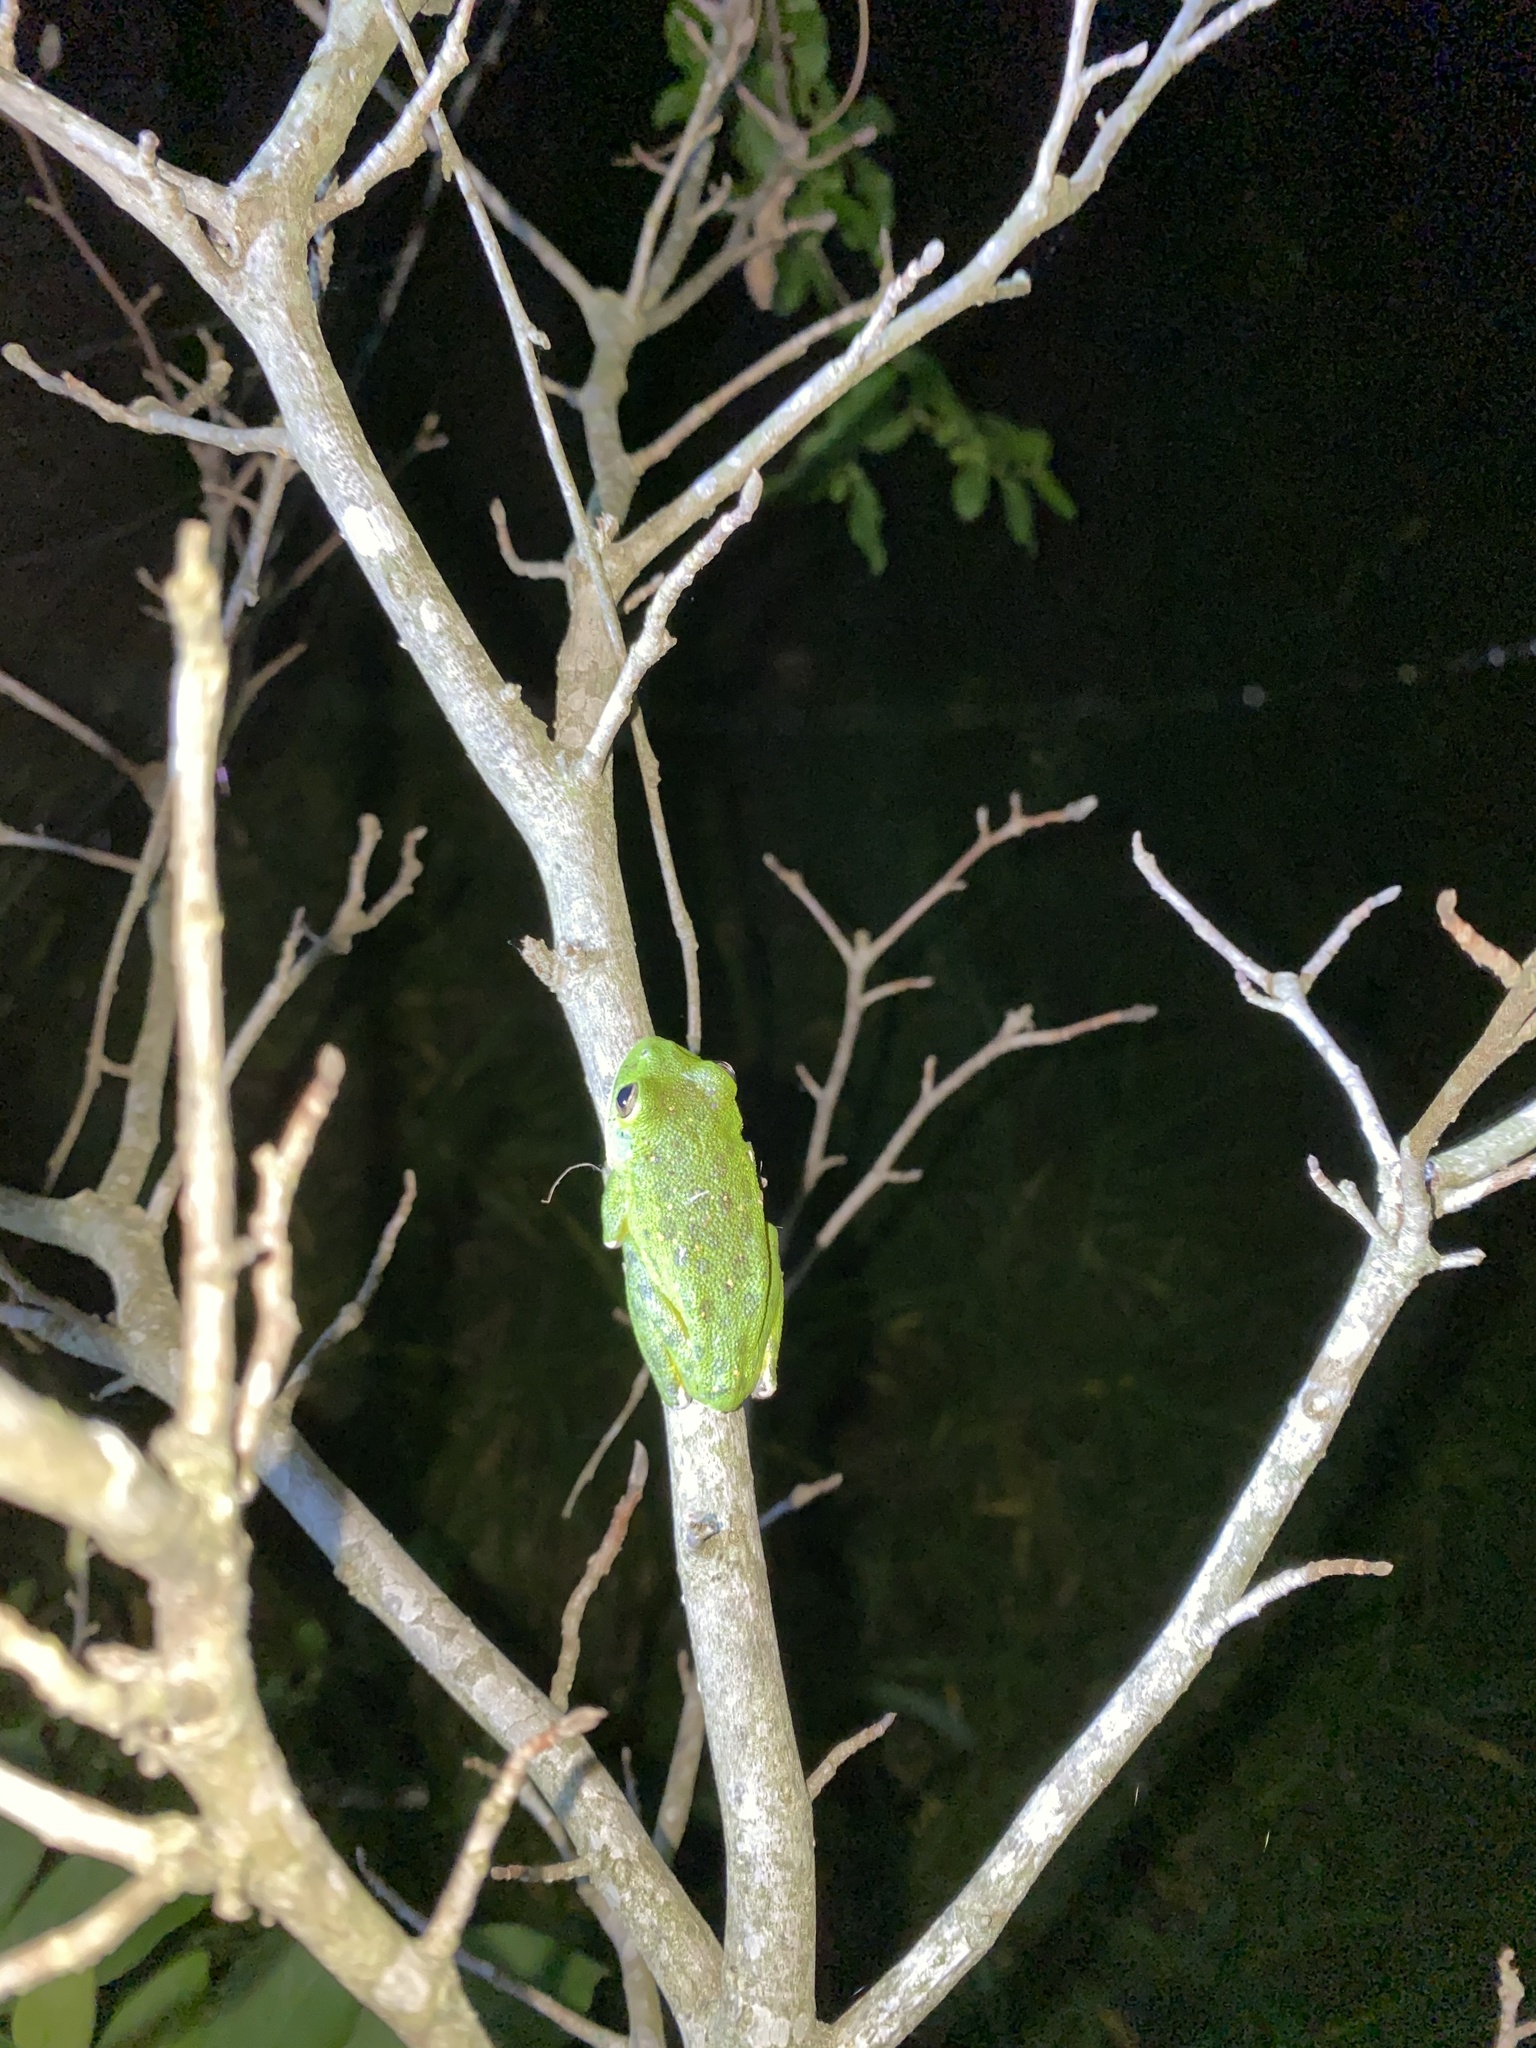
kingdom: Animalia
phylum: Chordata
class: Amphibia
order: Anura
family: Hylidae
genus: Dryophytes
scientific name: Dryophytes gratiosus
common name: Barking treefrog
